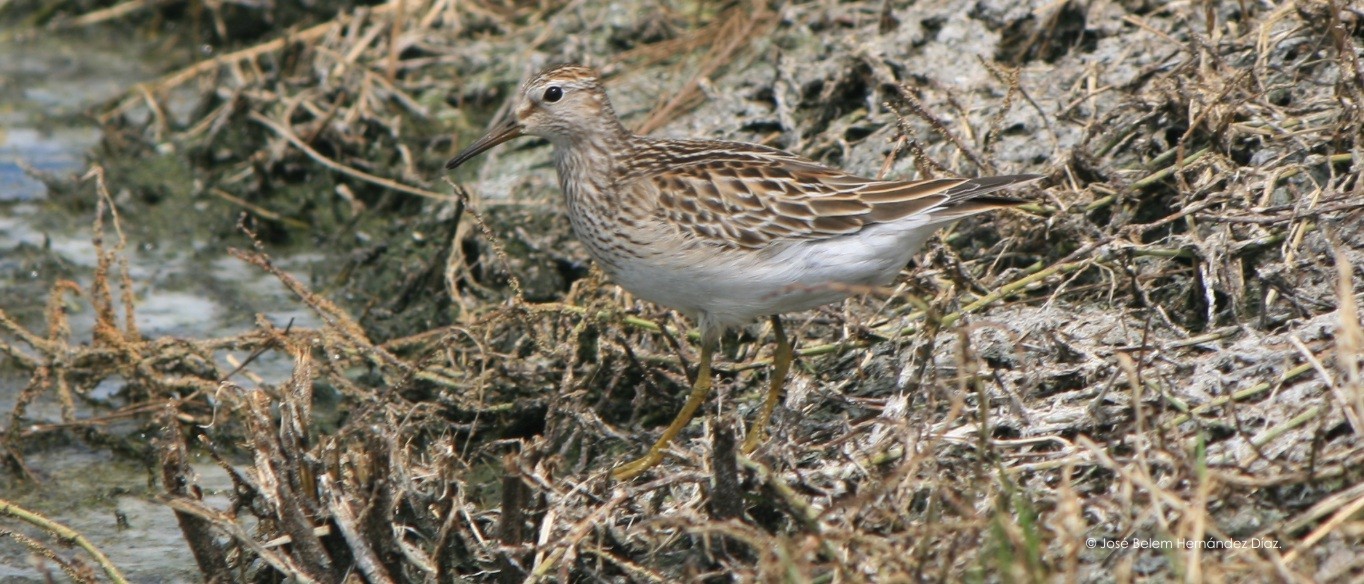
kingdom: Animalia
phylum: Chordata
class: Aves
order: Charadriiformes
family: Scolopacidae
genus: Calidris
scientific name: Calidris melanotos
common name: Pectoral sandpiper
